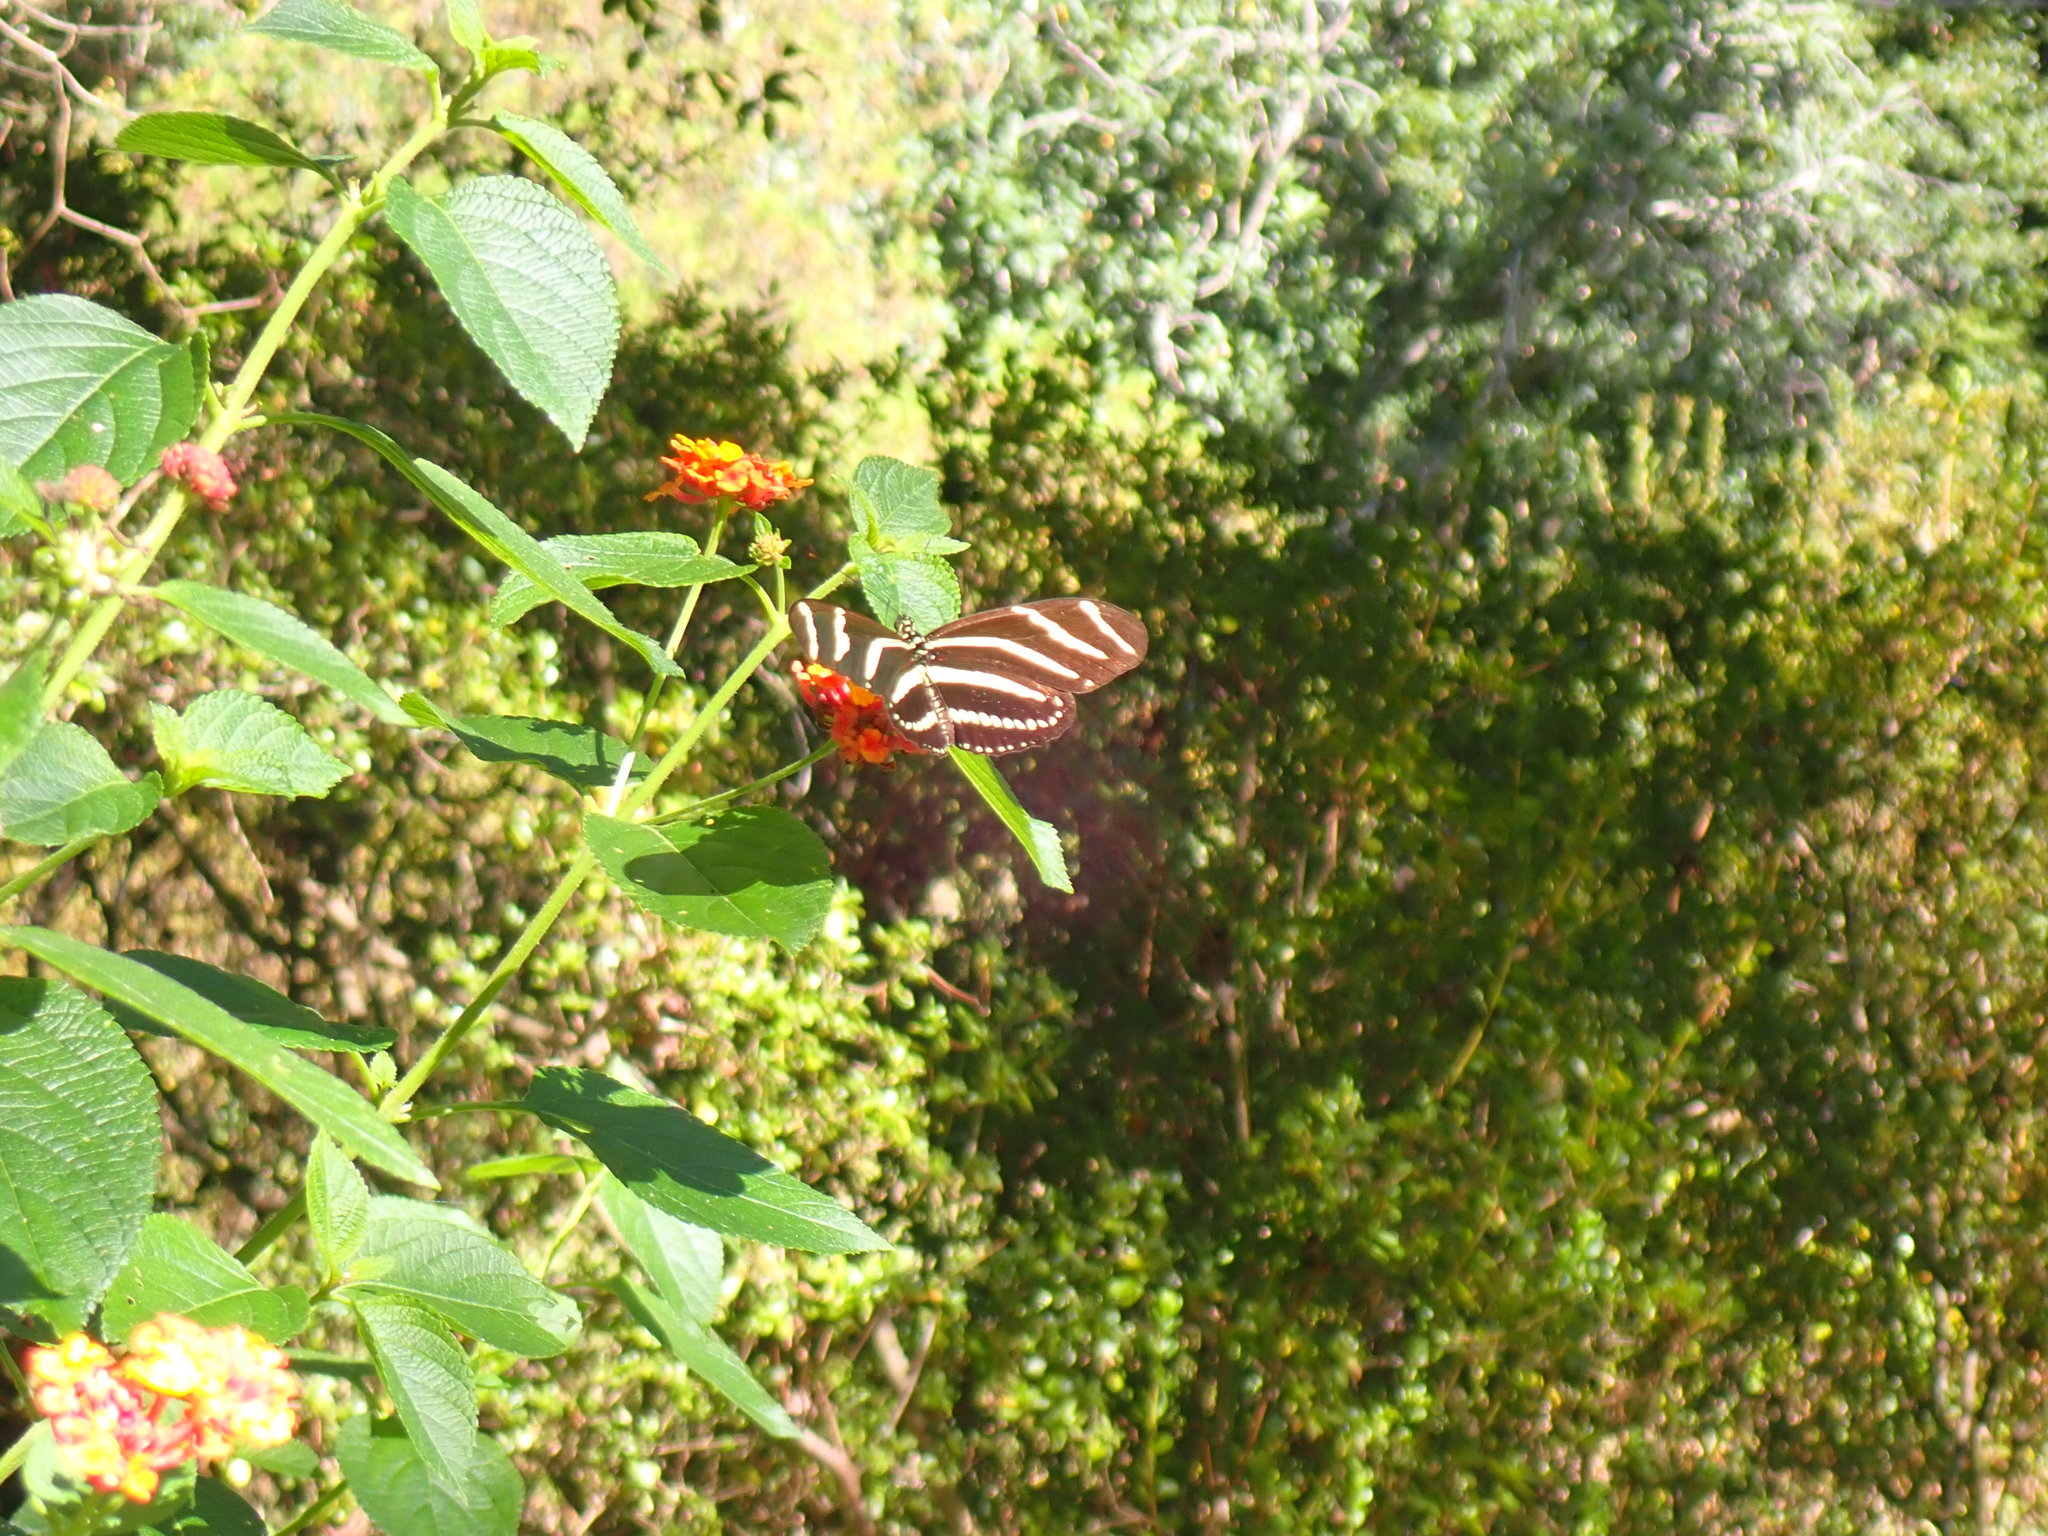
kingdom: Animalia
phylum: Arthropoda
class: Insecta
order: Lepidoptera
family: Nymphalidae
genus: Heliconius
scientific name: Heliconius charithonia
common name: Zebra long wing
